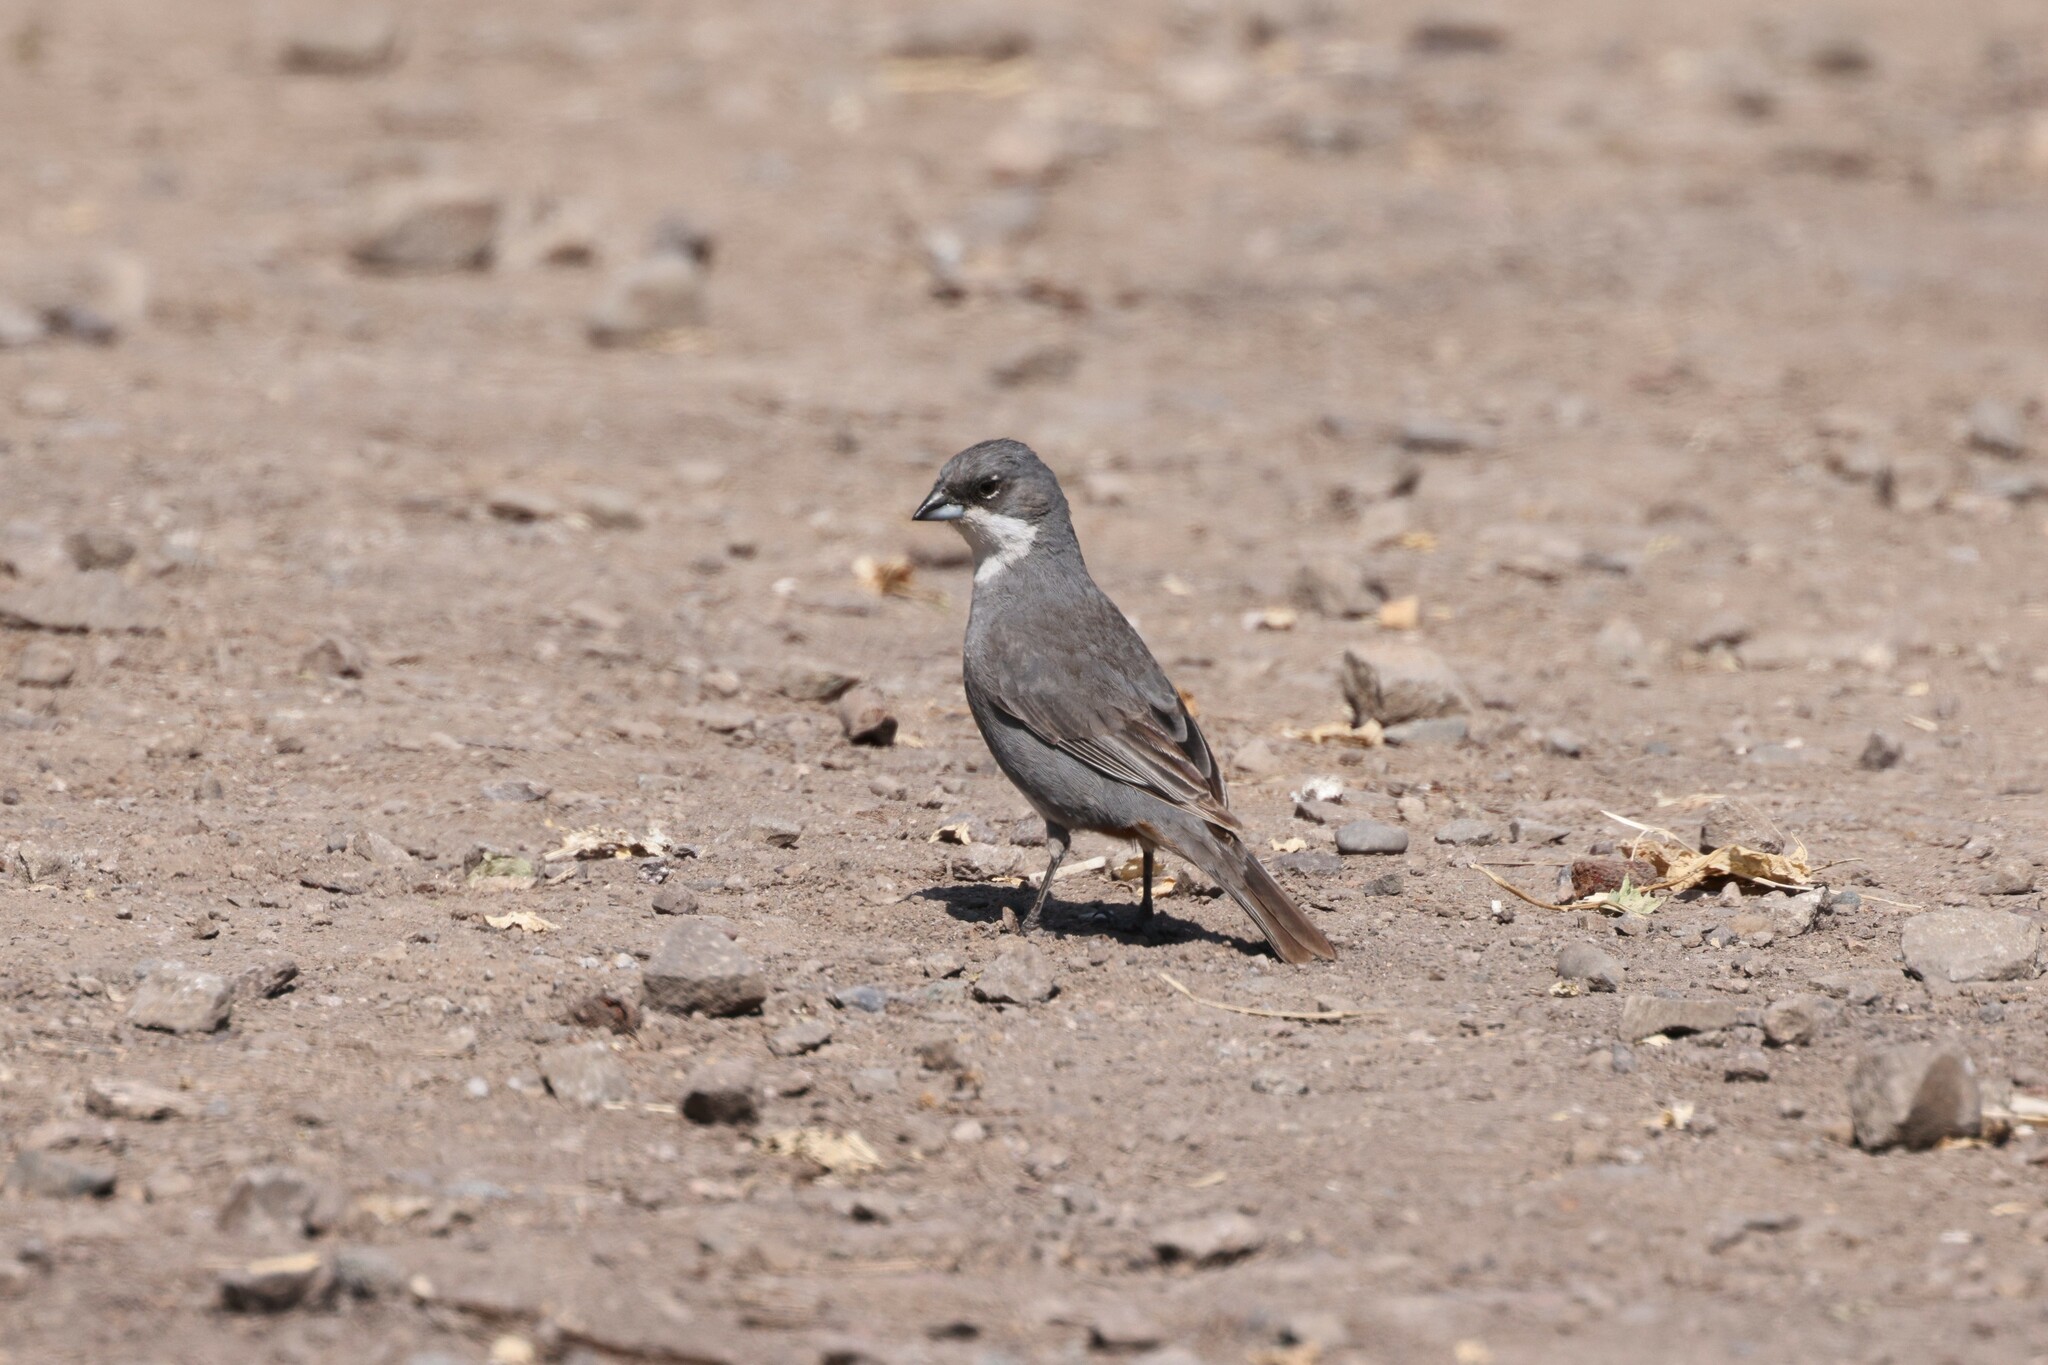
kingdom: Animalia
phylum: Chordata
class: Aves
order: Passeriformes
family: Thraupidae
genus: Diuca
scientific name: Diuca diuca
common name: Common diuca finch
